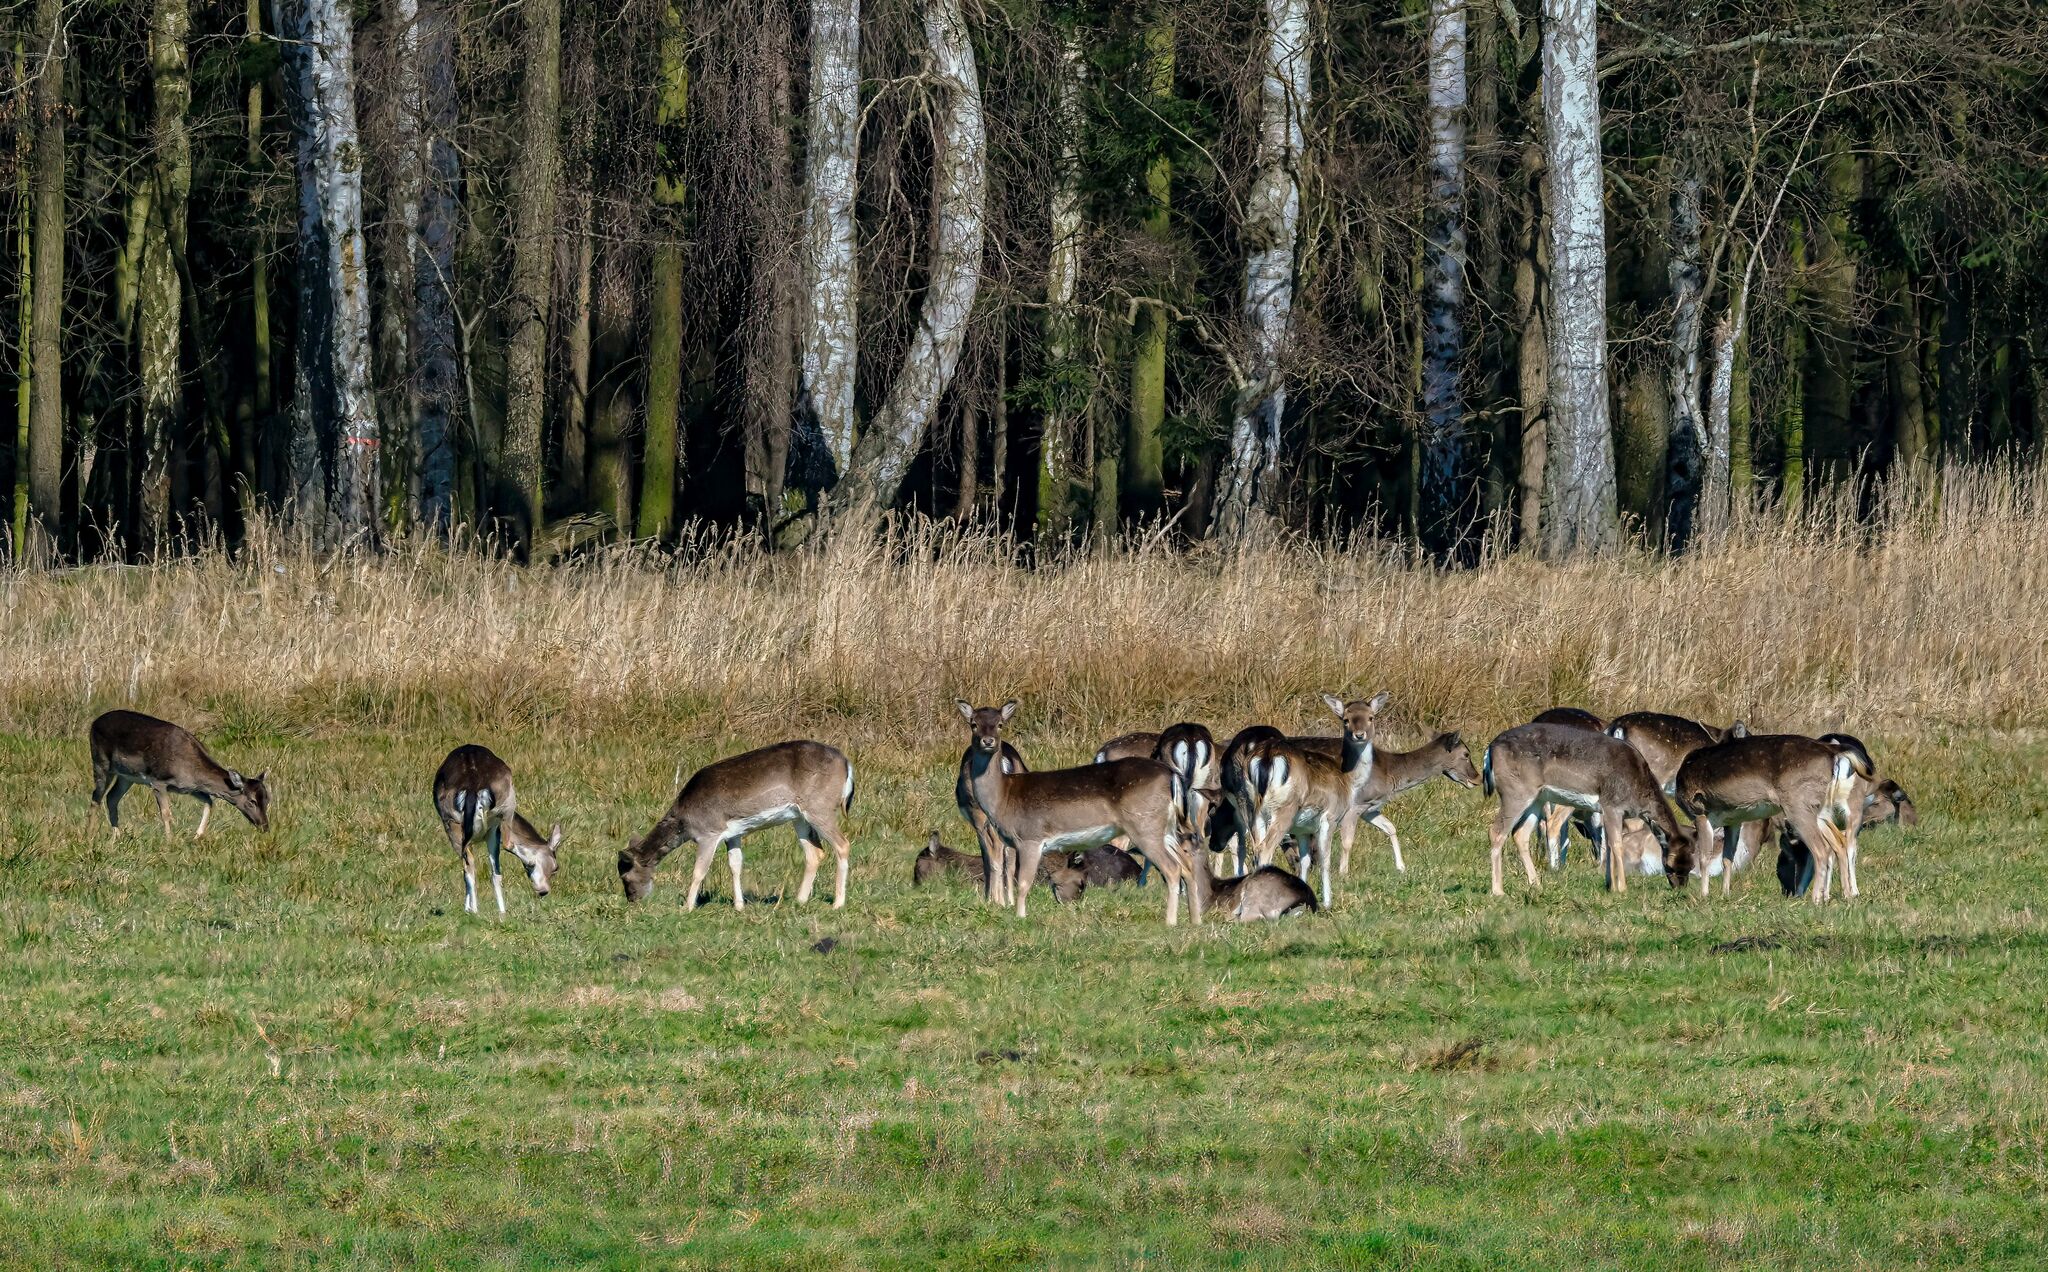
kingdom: Animalia
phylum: Chordata
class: Mammalia
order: Artiodactyla
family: Cervidae
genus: Dama
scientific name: Dama dama
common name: Fallow deer
